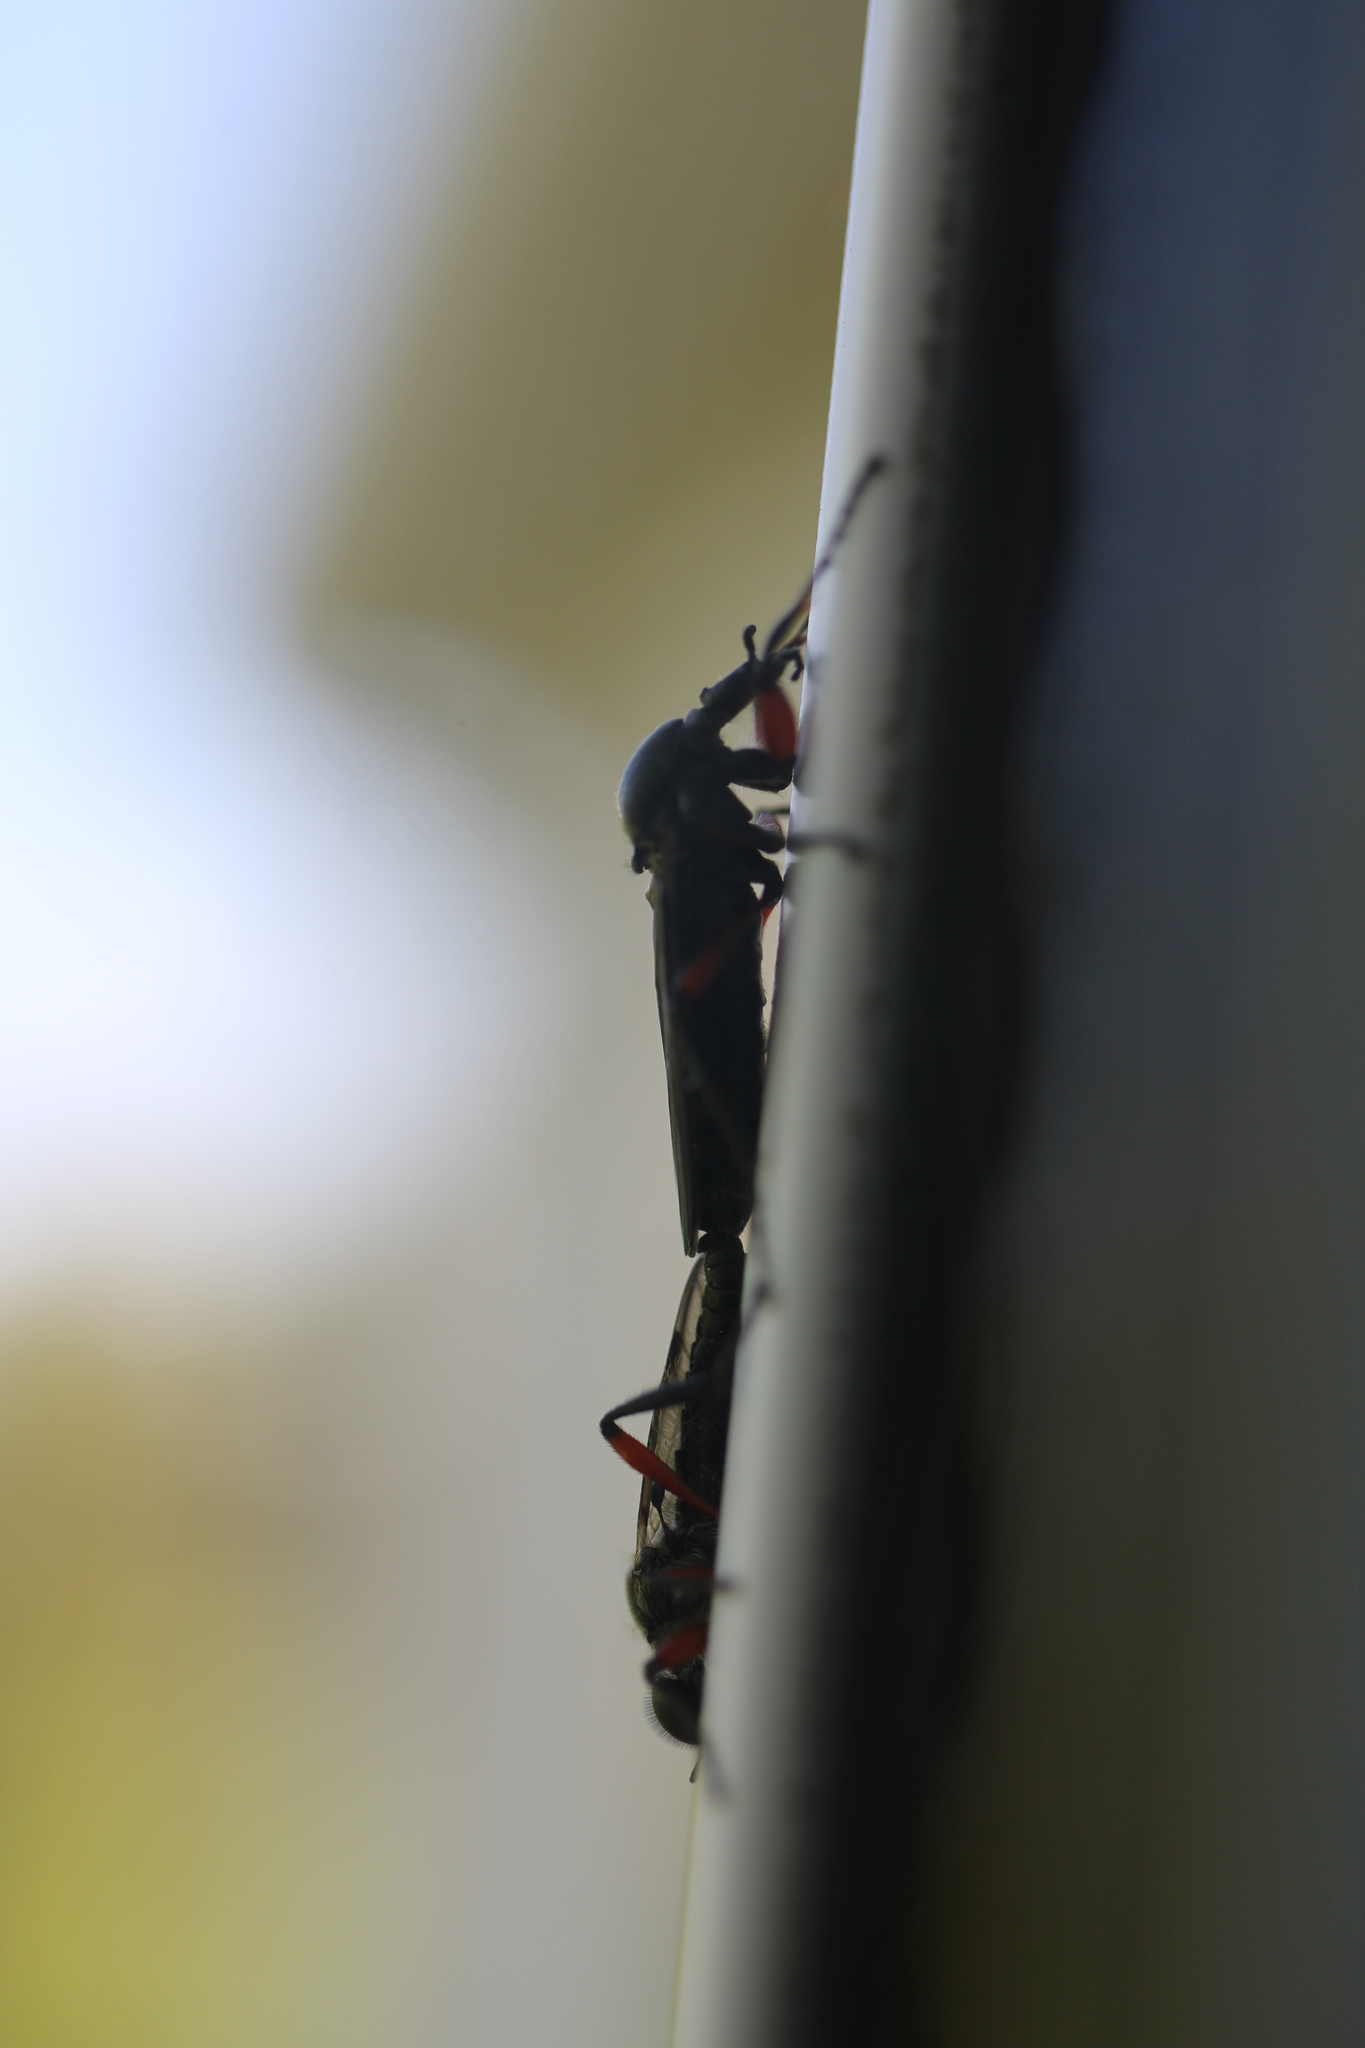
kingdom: Animalia
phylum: Arthropoda
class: Insecta
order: Diptera
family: Bibionidae
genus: Bibio
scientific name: Bibio femoratus
